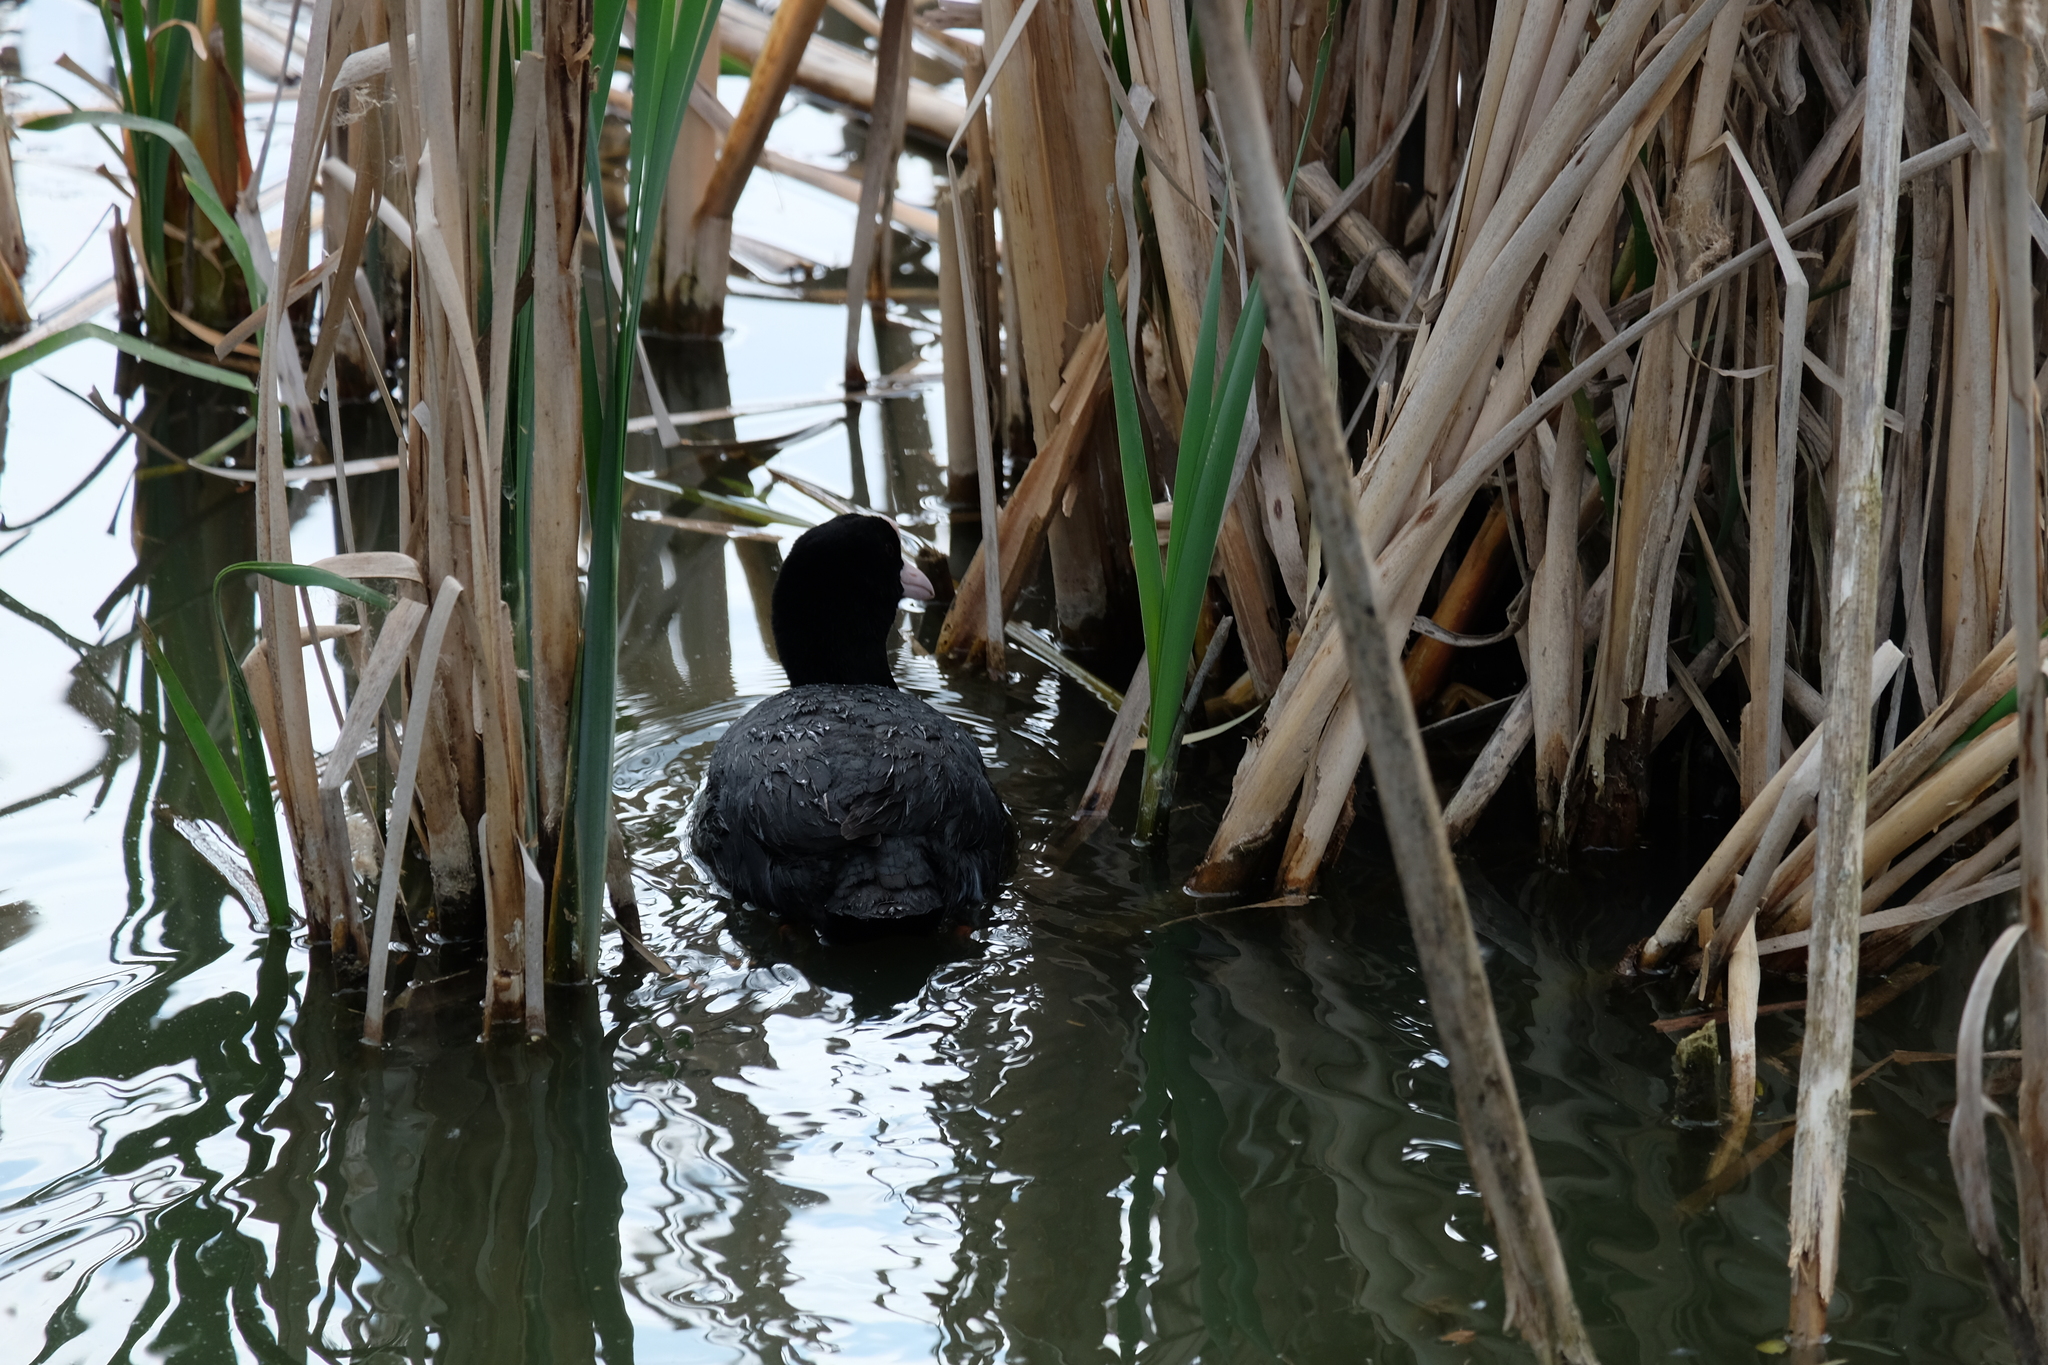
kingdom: Animalia
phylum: Chordata
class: Aves
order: Gruiformes
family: Rallidae
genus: Fulica
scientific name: Fulica atra
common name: Eurasian coot
